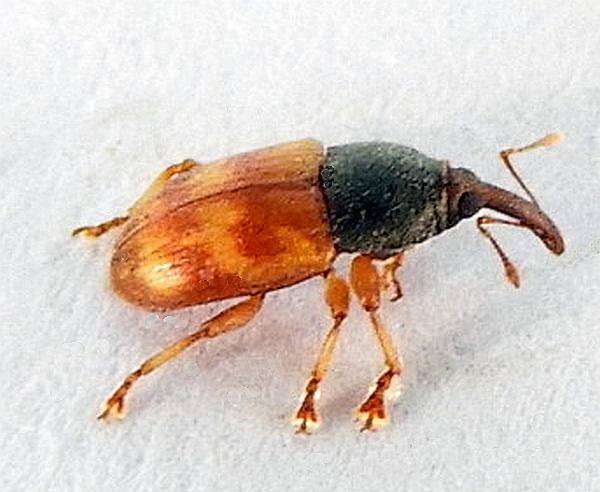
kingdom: Animalia
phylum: Arthropoda
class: Insecta
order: Coleoptera
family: Curculionidae
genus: Notolomus
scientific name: Notolomus bicolor
